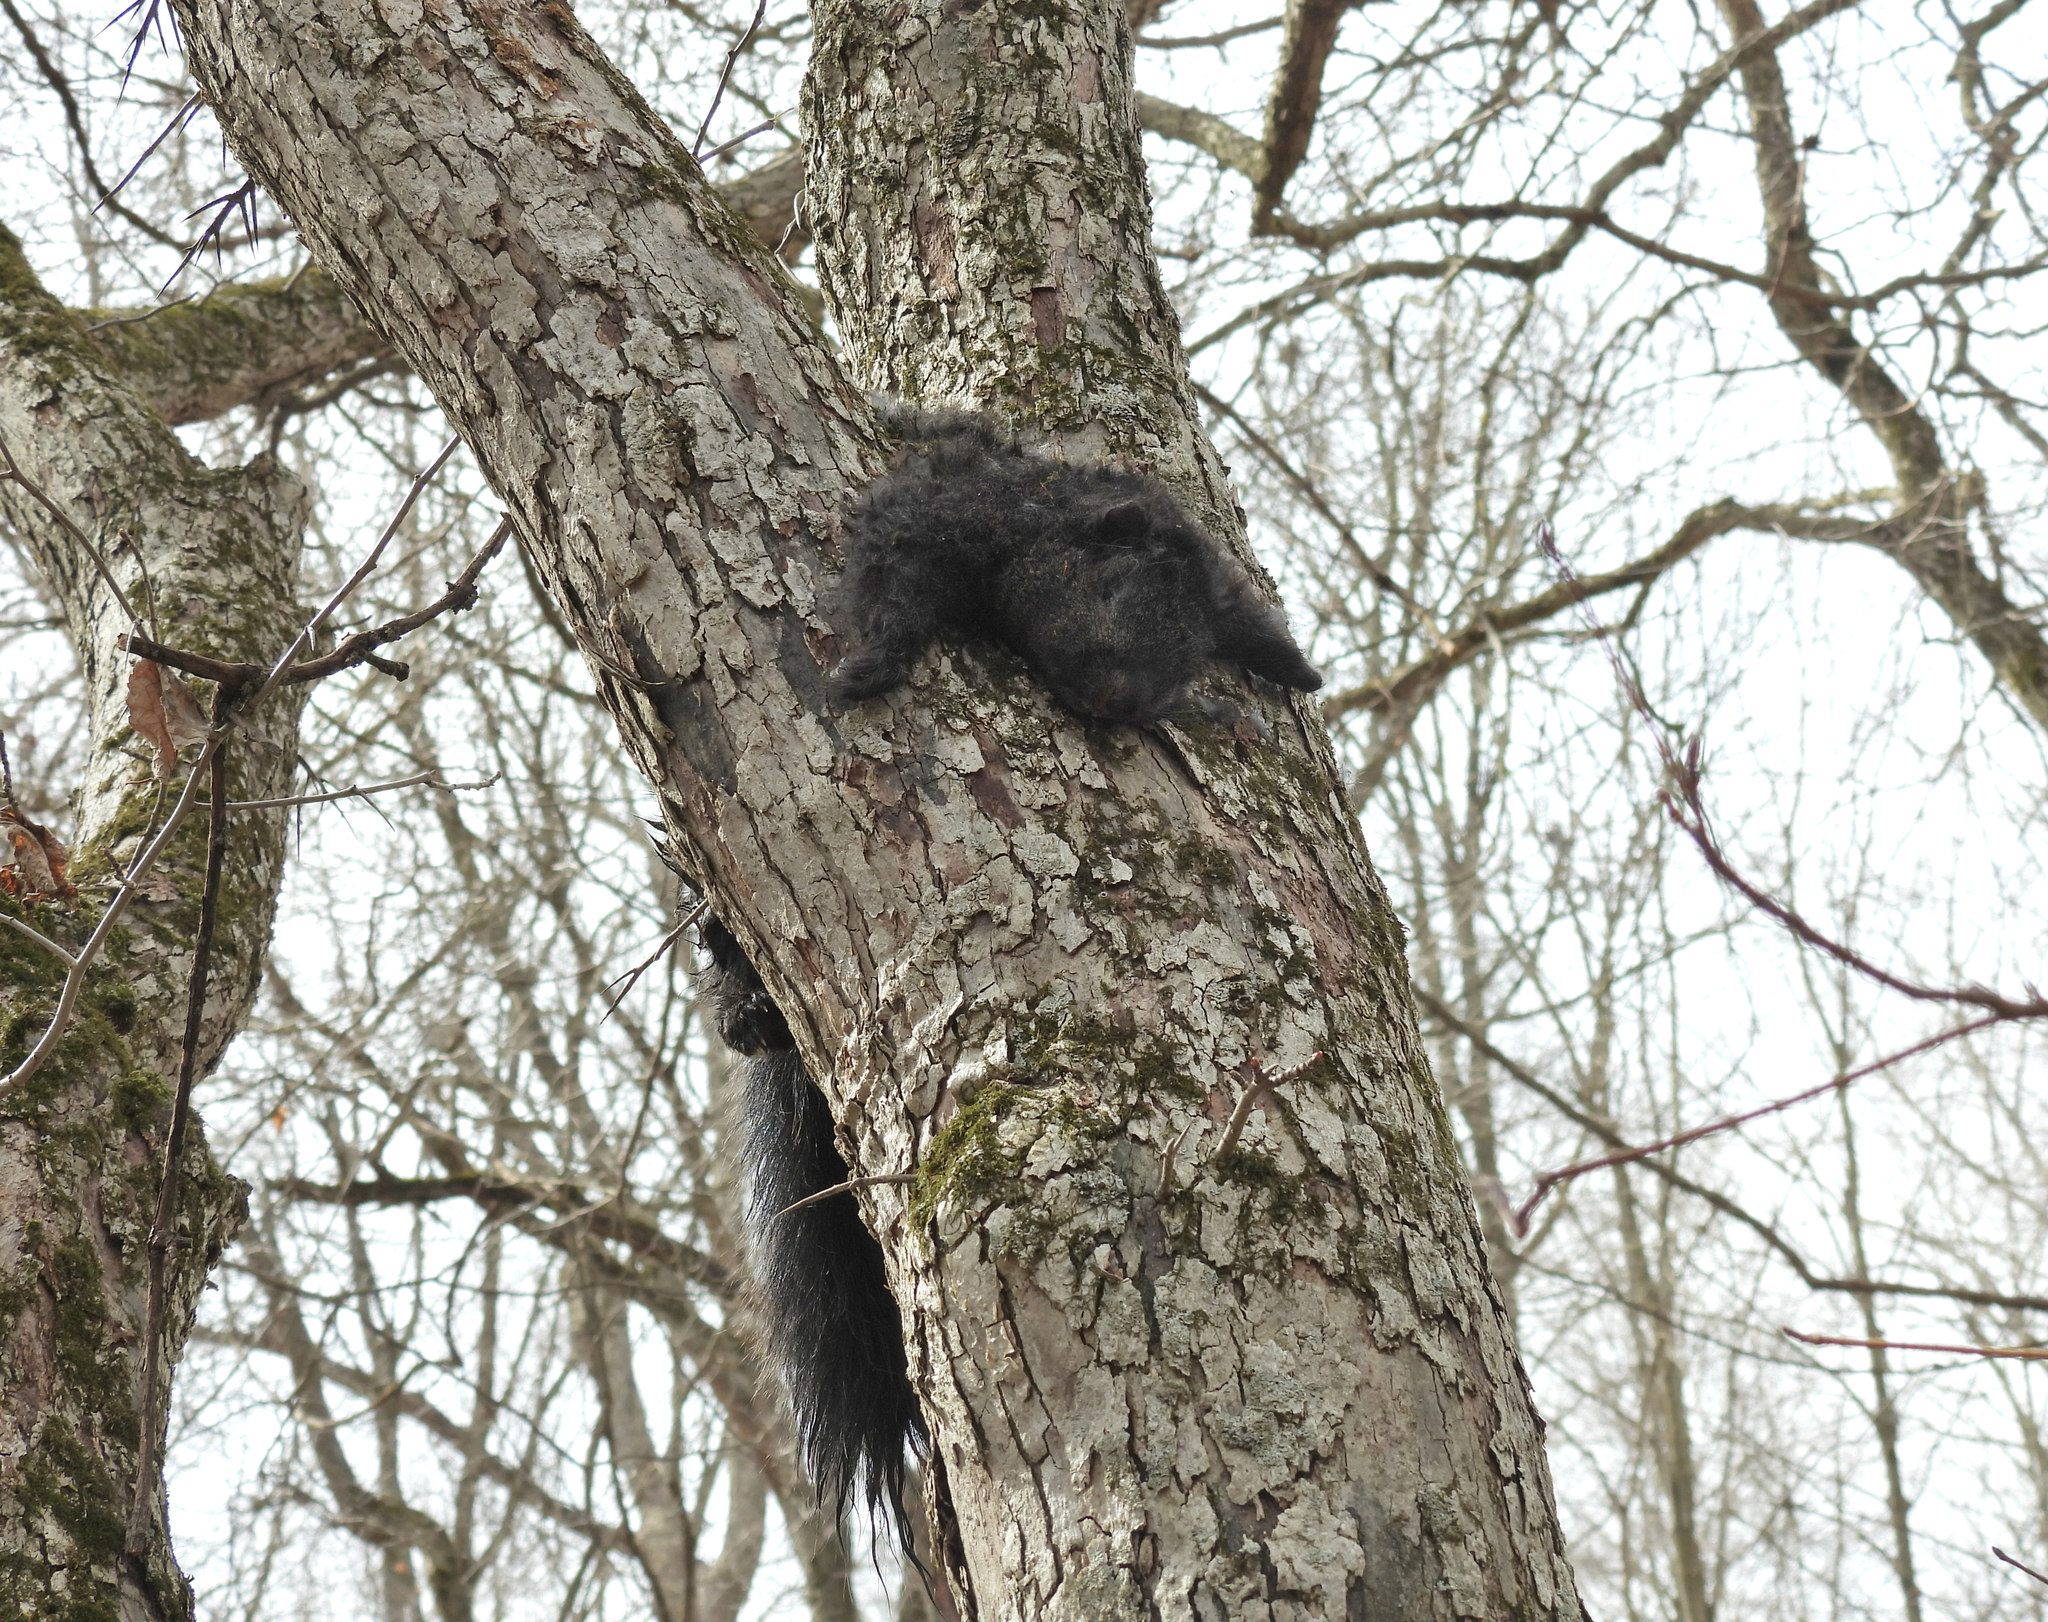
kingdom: Animalia
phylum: Chordata
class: Mammalia
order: Rodentia
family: Sciuridae
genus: Sciurus
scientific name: Sciurus carolinensis
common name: Eastern gray squirrel
